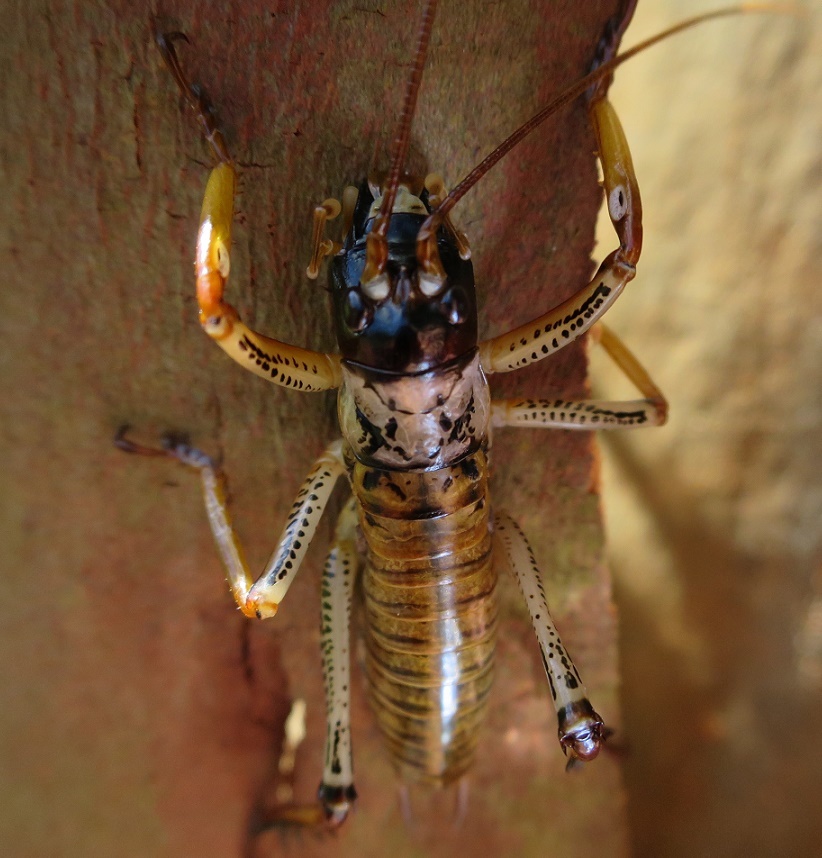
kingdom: Animalia
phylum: Arthropoda
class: Insecta
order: Orthoptera
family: Anostostomatidae
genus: Hemideina
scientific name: Hemideina thoracica
